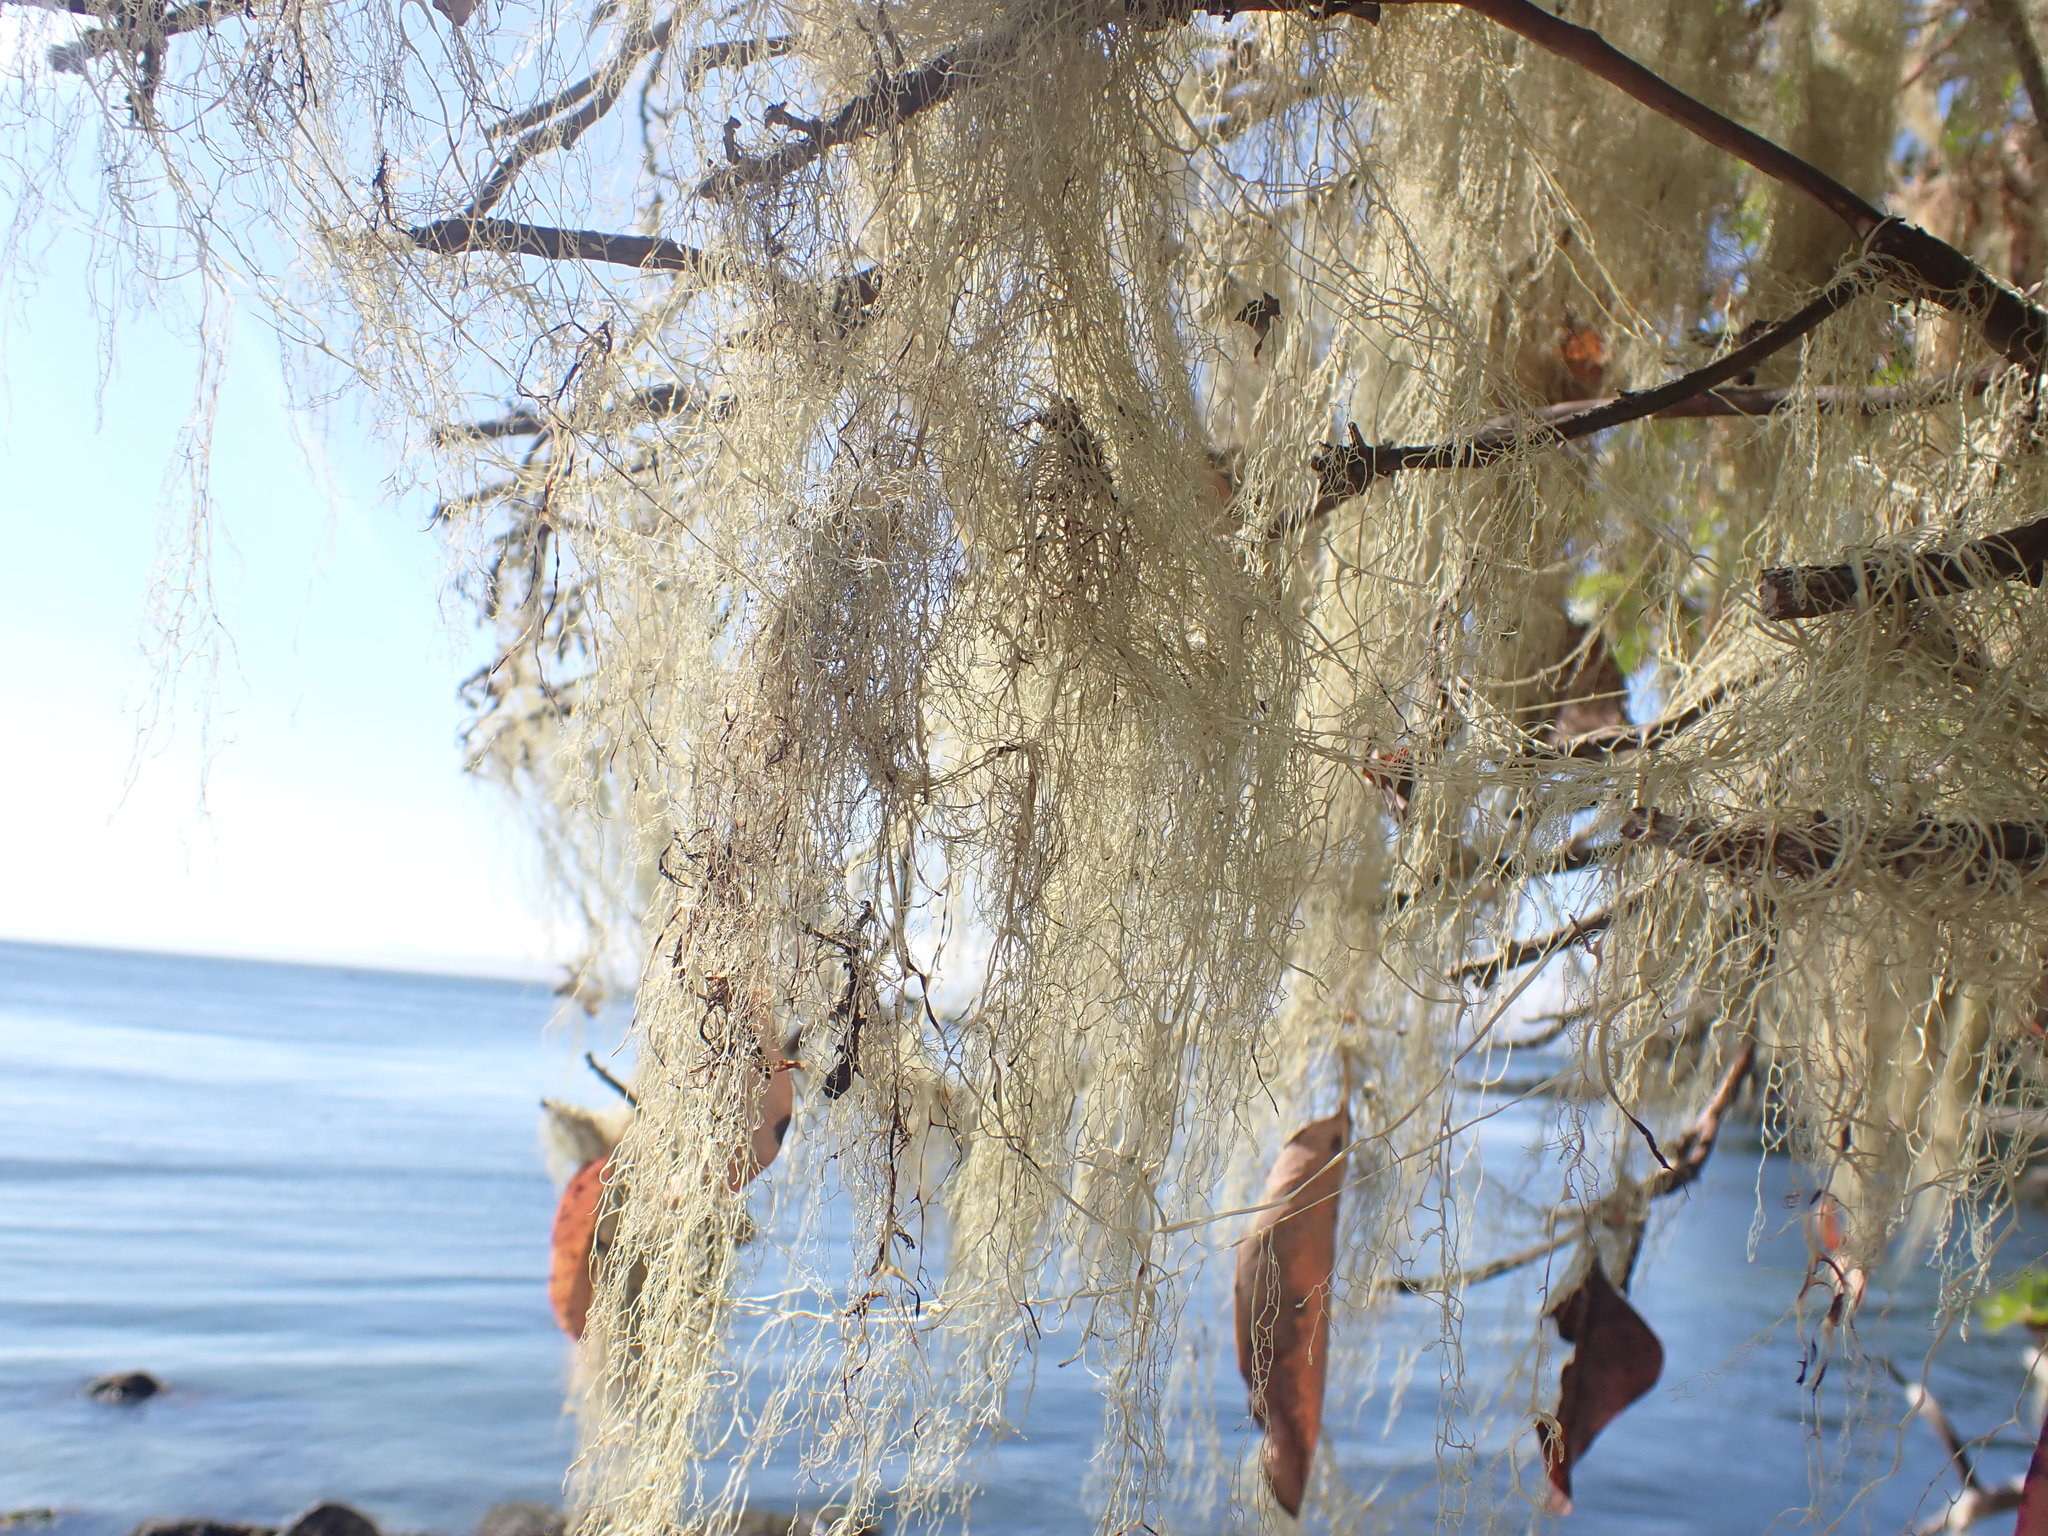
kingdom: Fungi
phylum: Ascomycota
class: Lecanoromycetes
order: Lecanorales
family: Ramalinaceae
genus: Ramalina
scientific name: Ramalina menziesii
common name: Lace lichen
